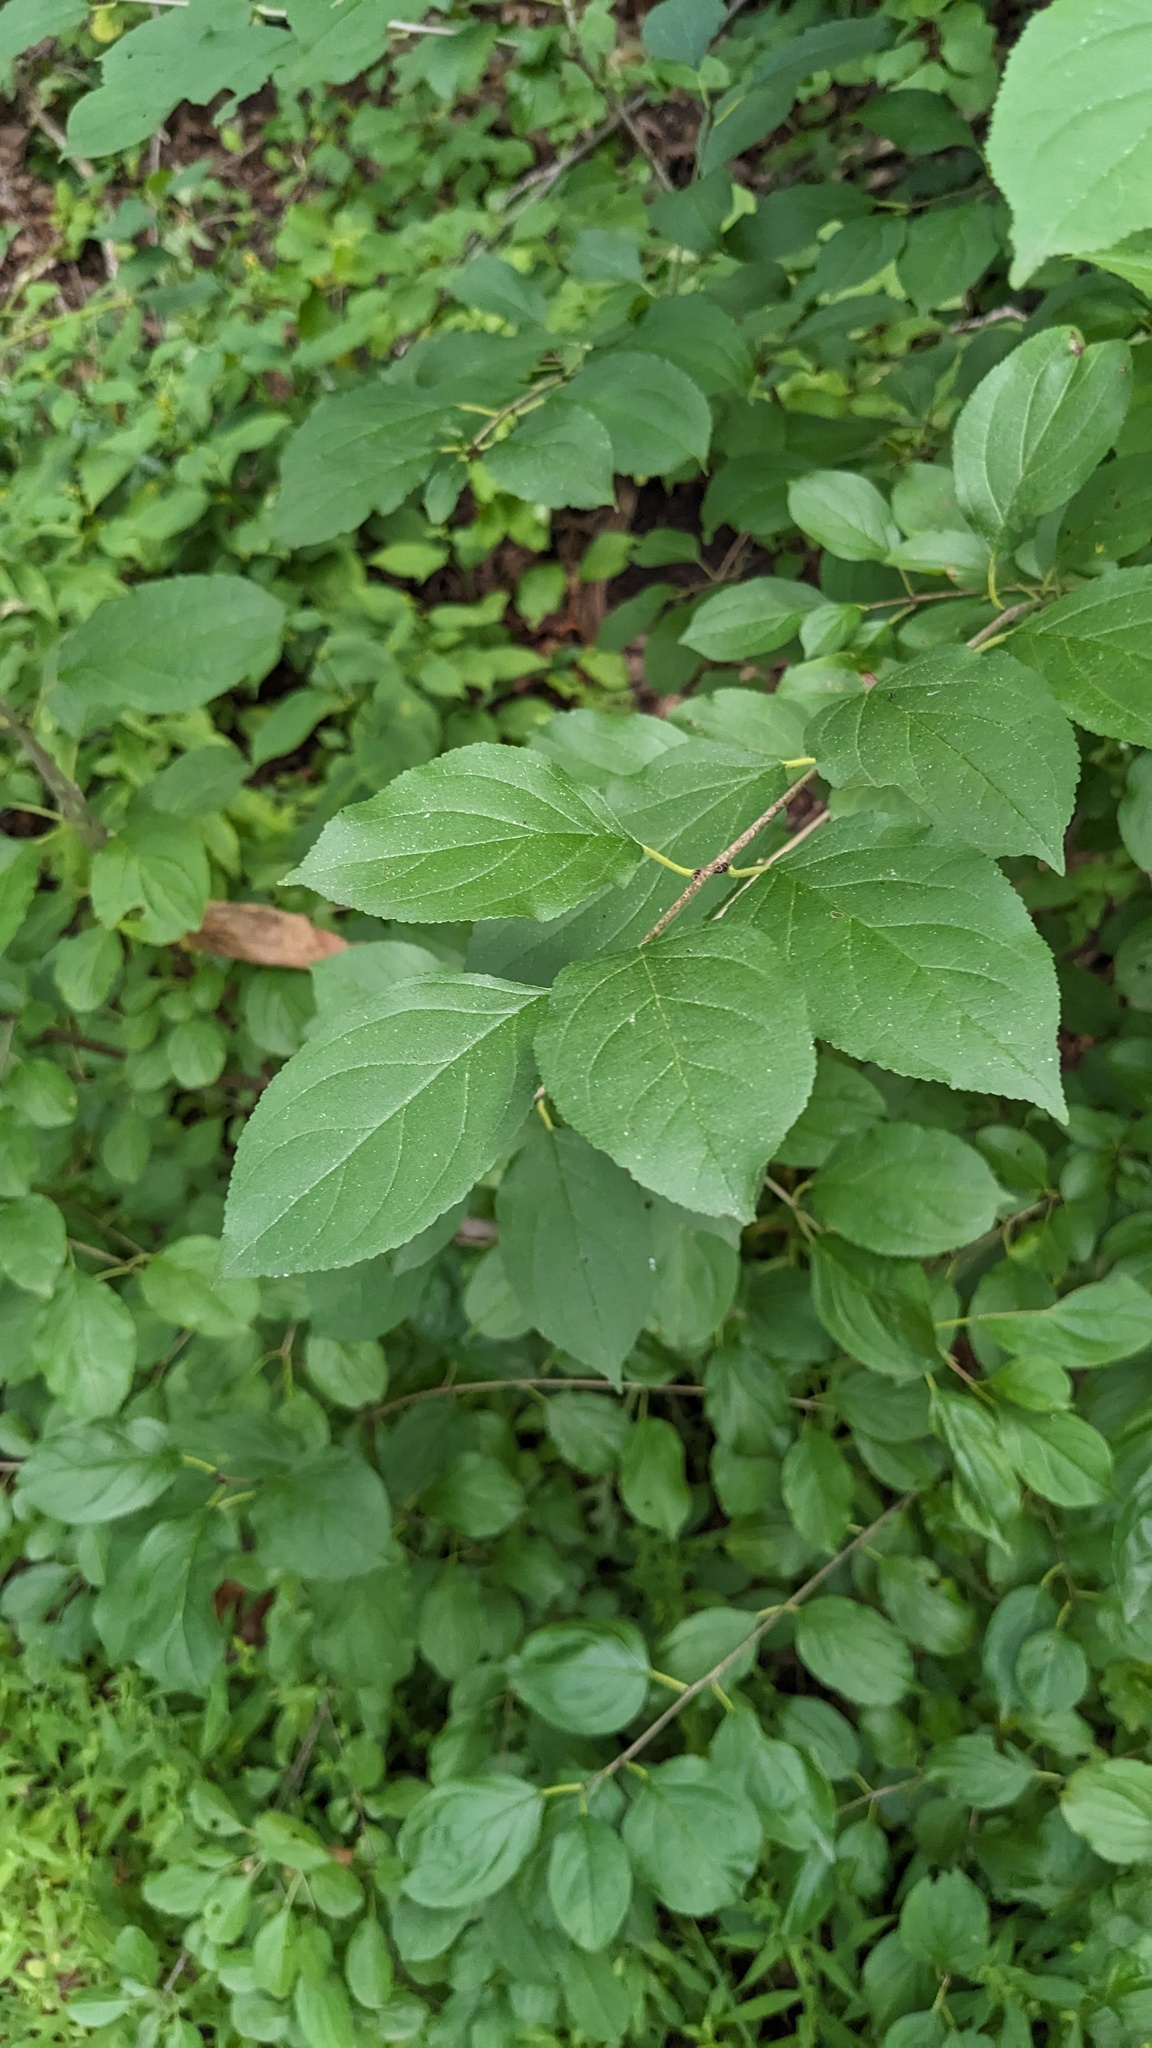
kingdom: Plantae
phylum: Tracheophyta
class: Magnoliopsida
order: Rosales
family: Rhamnaceae
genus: Rhamnus
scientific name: Rhamnus cathartica
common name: Common buckthorn
